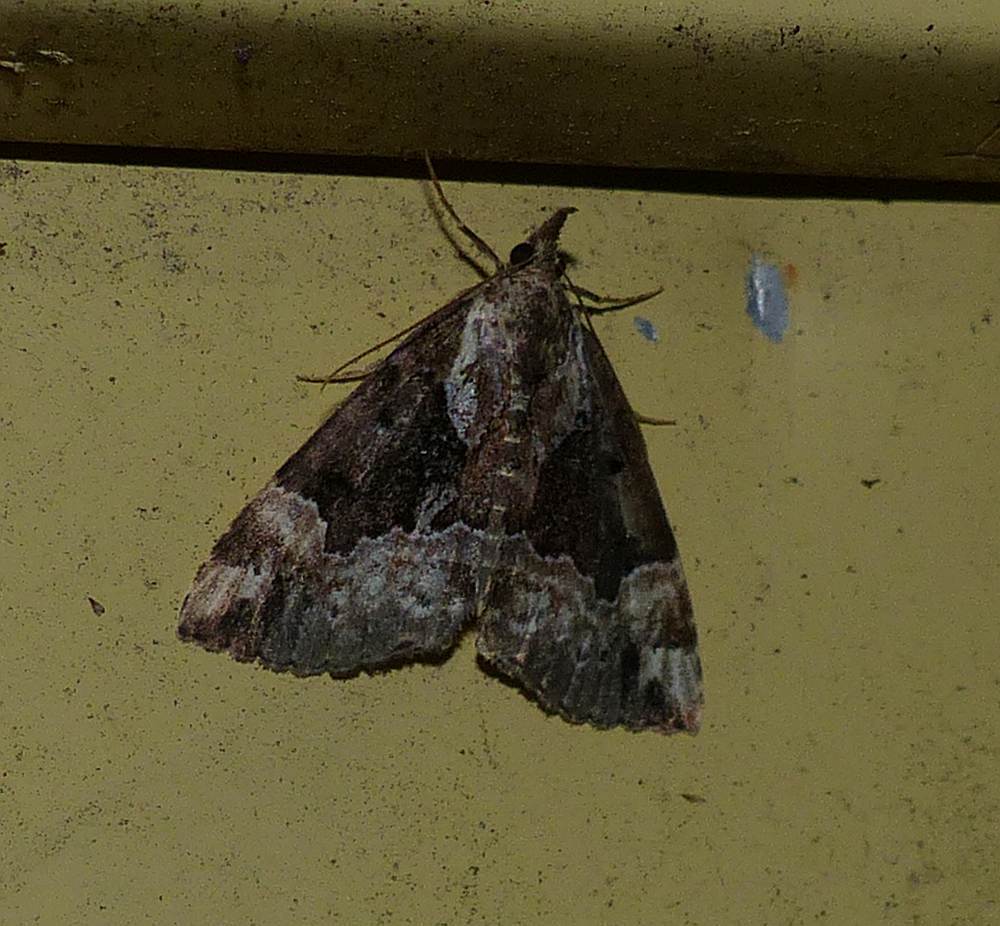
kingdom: Animalia
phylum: Arthropoda
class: Insecta
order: Lepidoptera
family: Erebidae
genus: Hypena
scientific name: Hypena baltimoralis
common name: Baltimore snout
